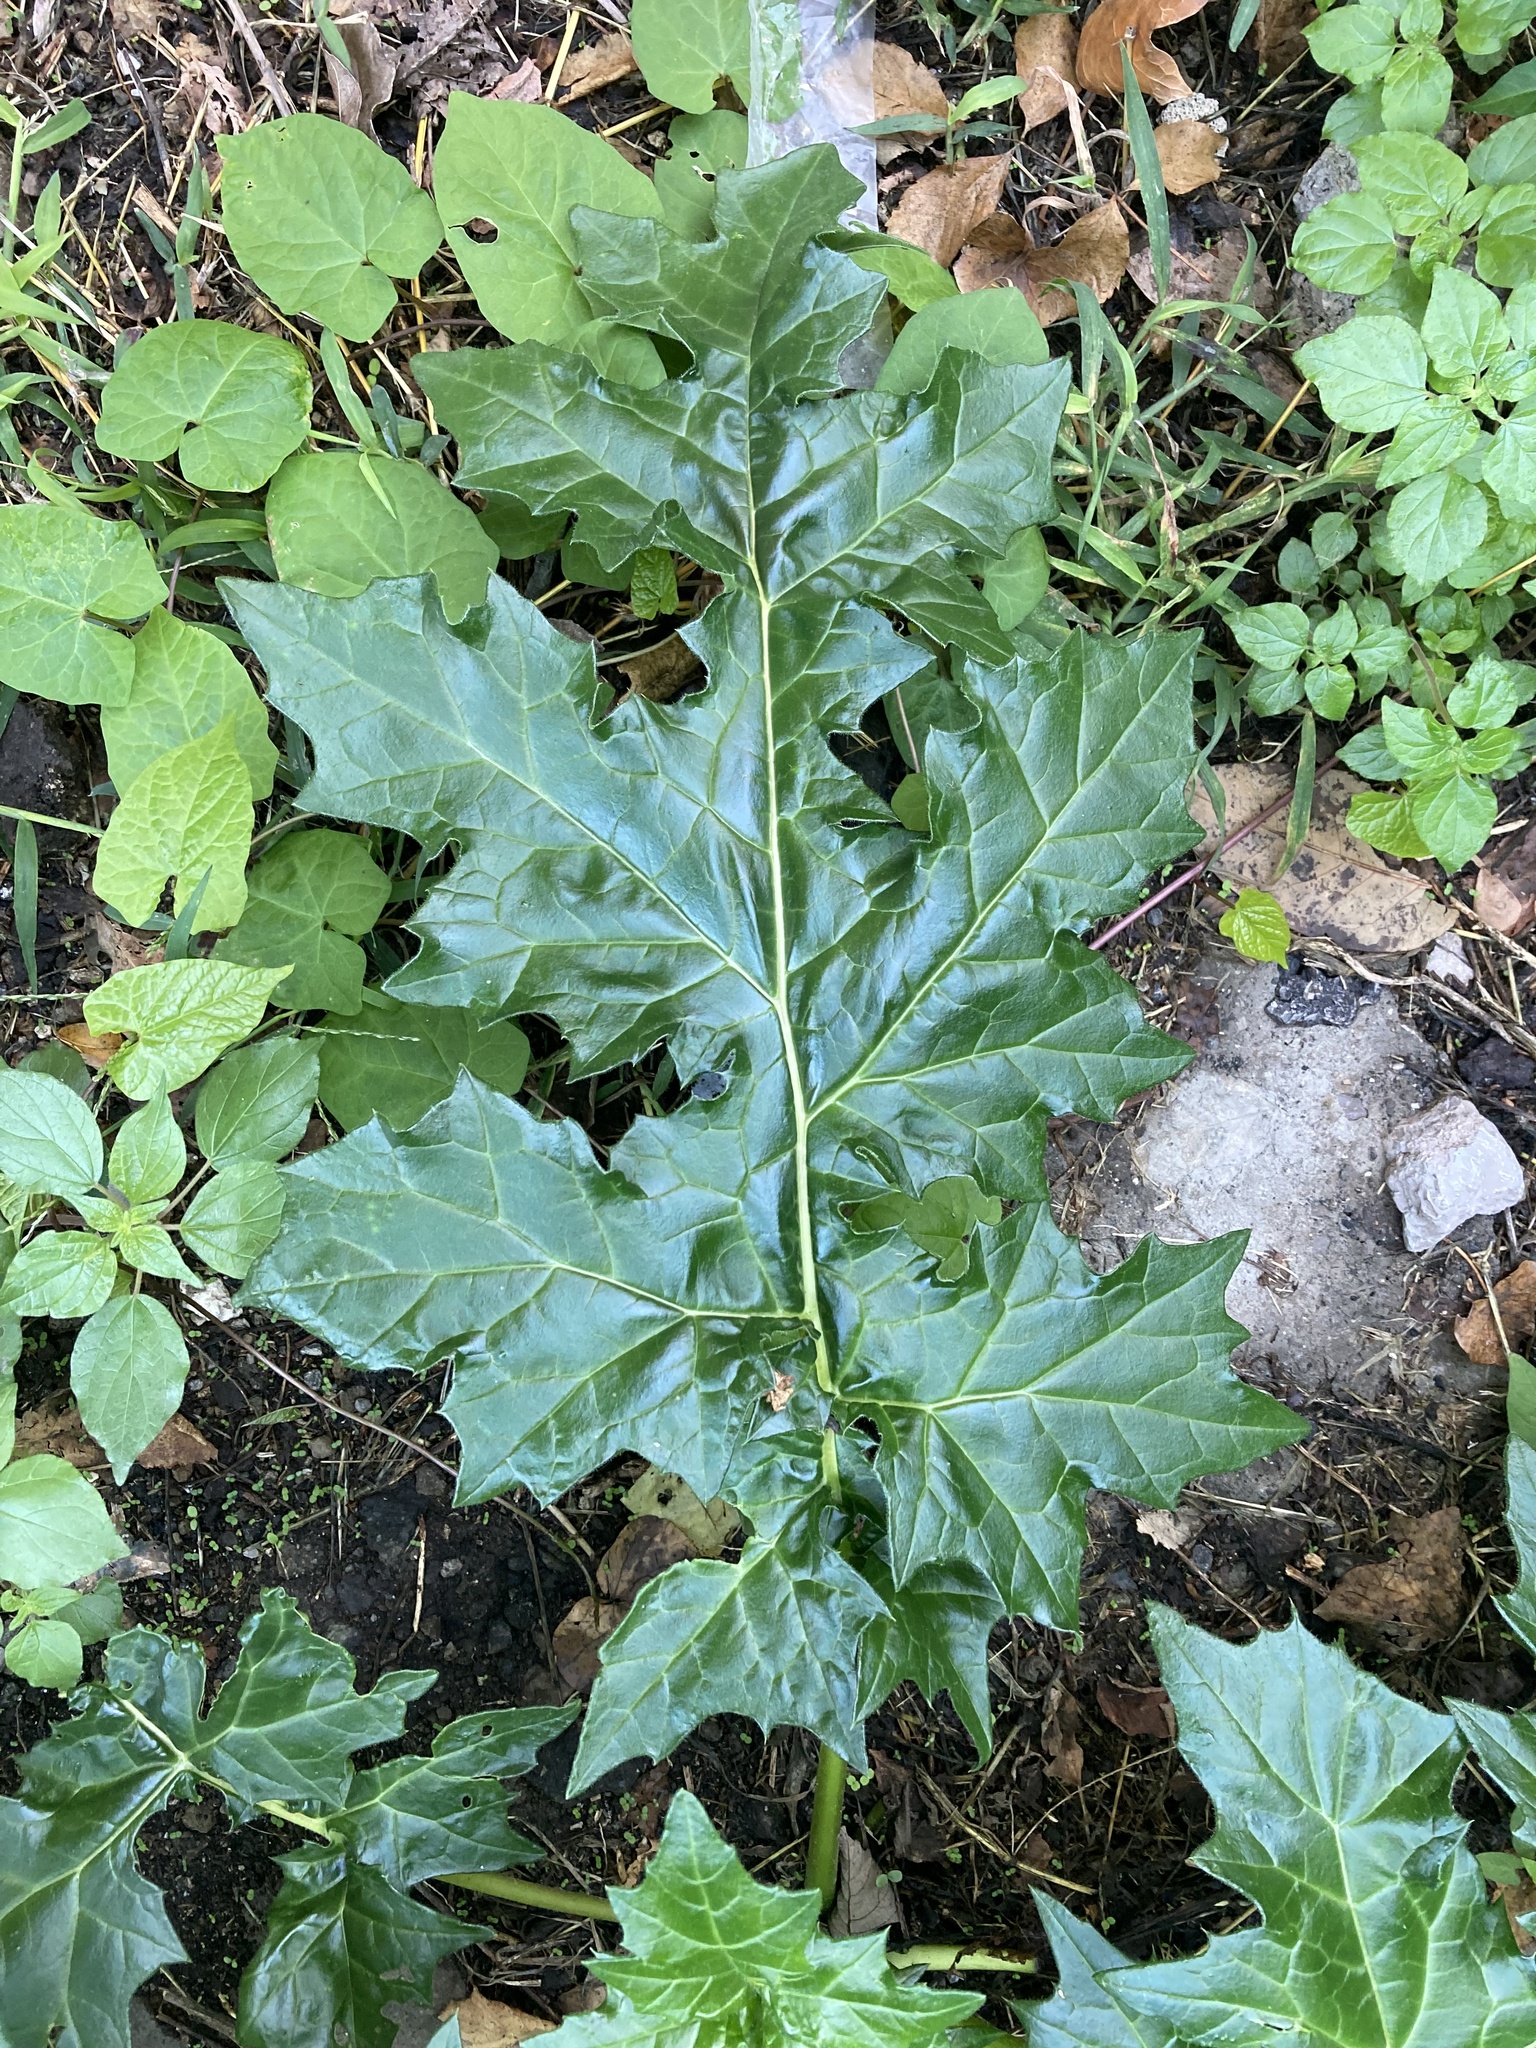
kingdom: Plantae
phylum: Tracheophyta
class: Magnoliopsida
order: Lamiales
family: Acanthaceae
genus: Acanthus
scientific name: Acanthus mollis
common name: Bear's-breech
